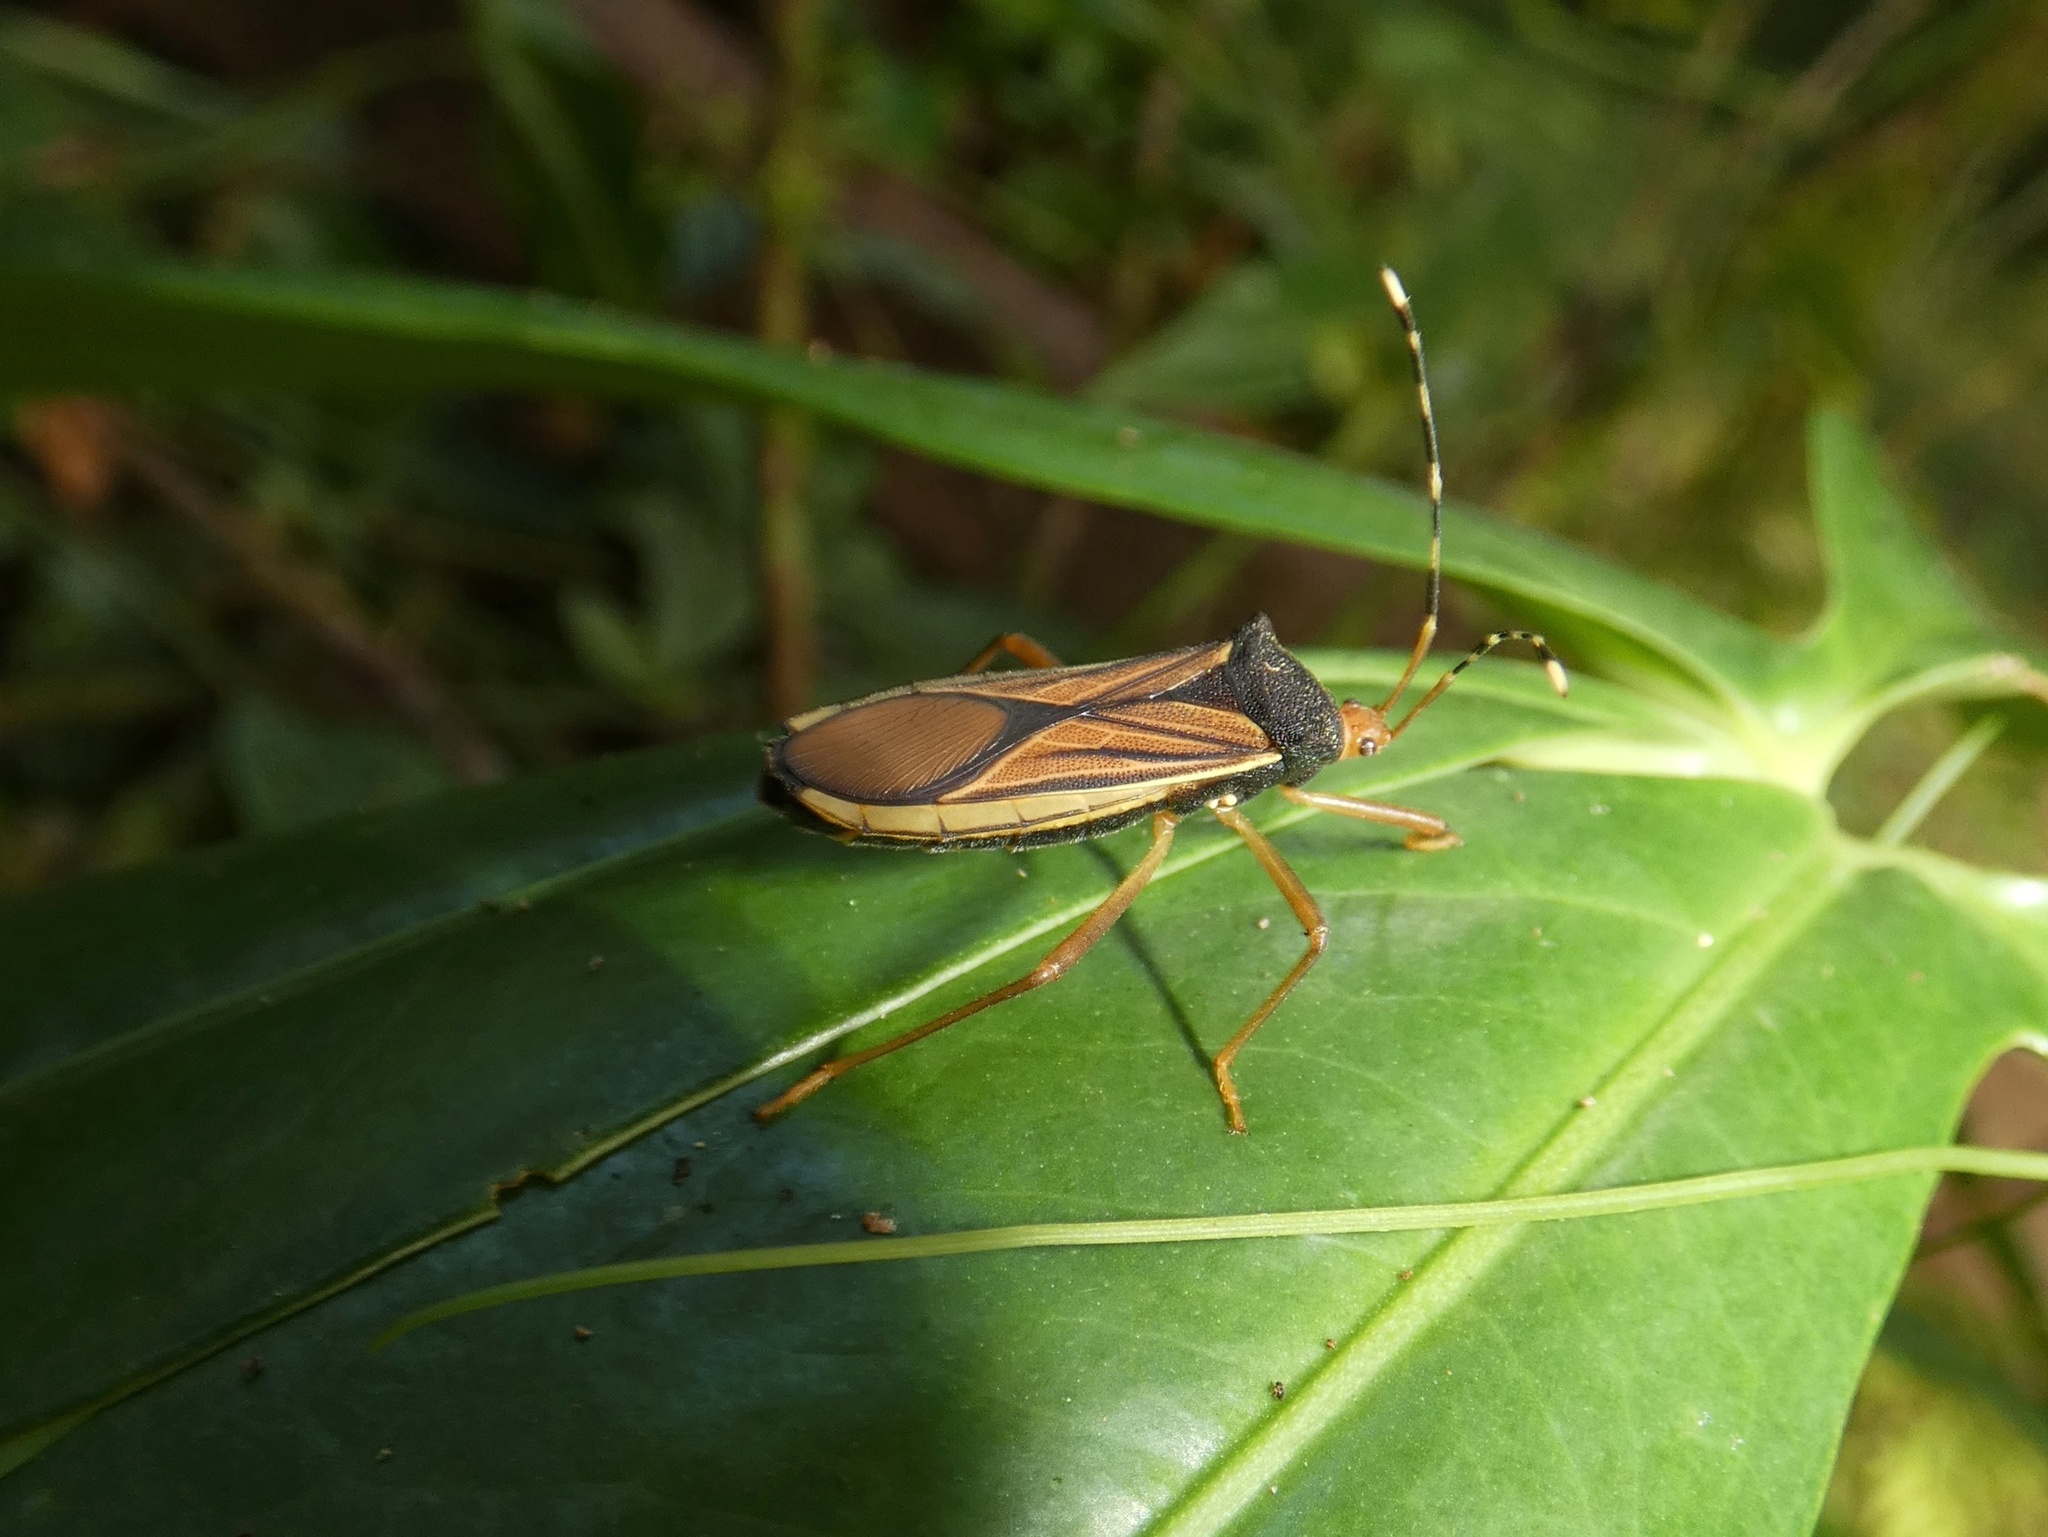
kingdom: Animalia
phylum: Arthropoda
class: Insecta
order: Hemiptera
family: Coreidae
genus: Anasa
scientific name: Anasa nigricollis
